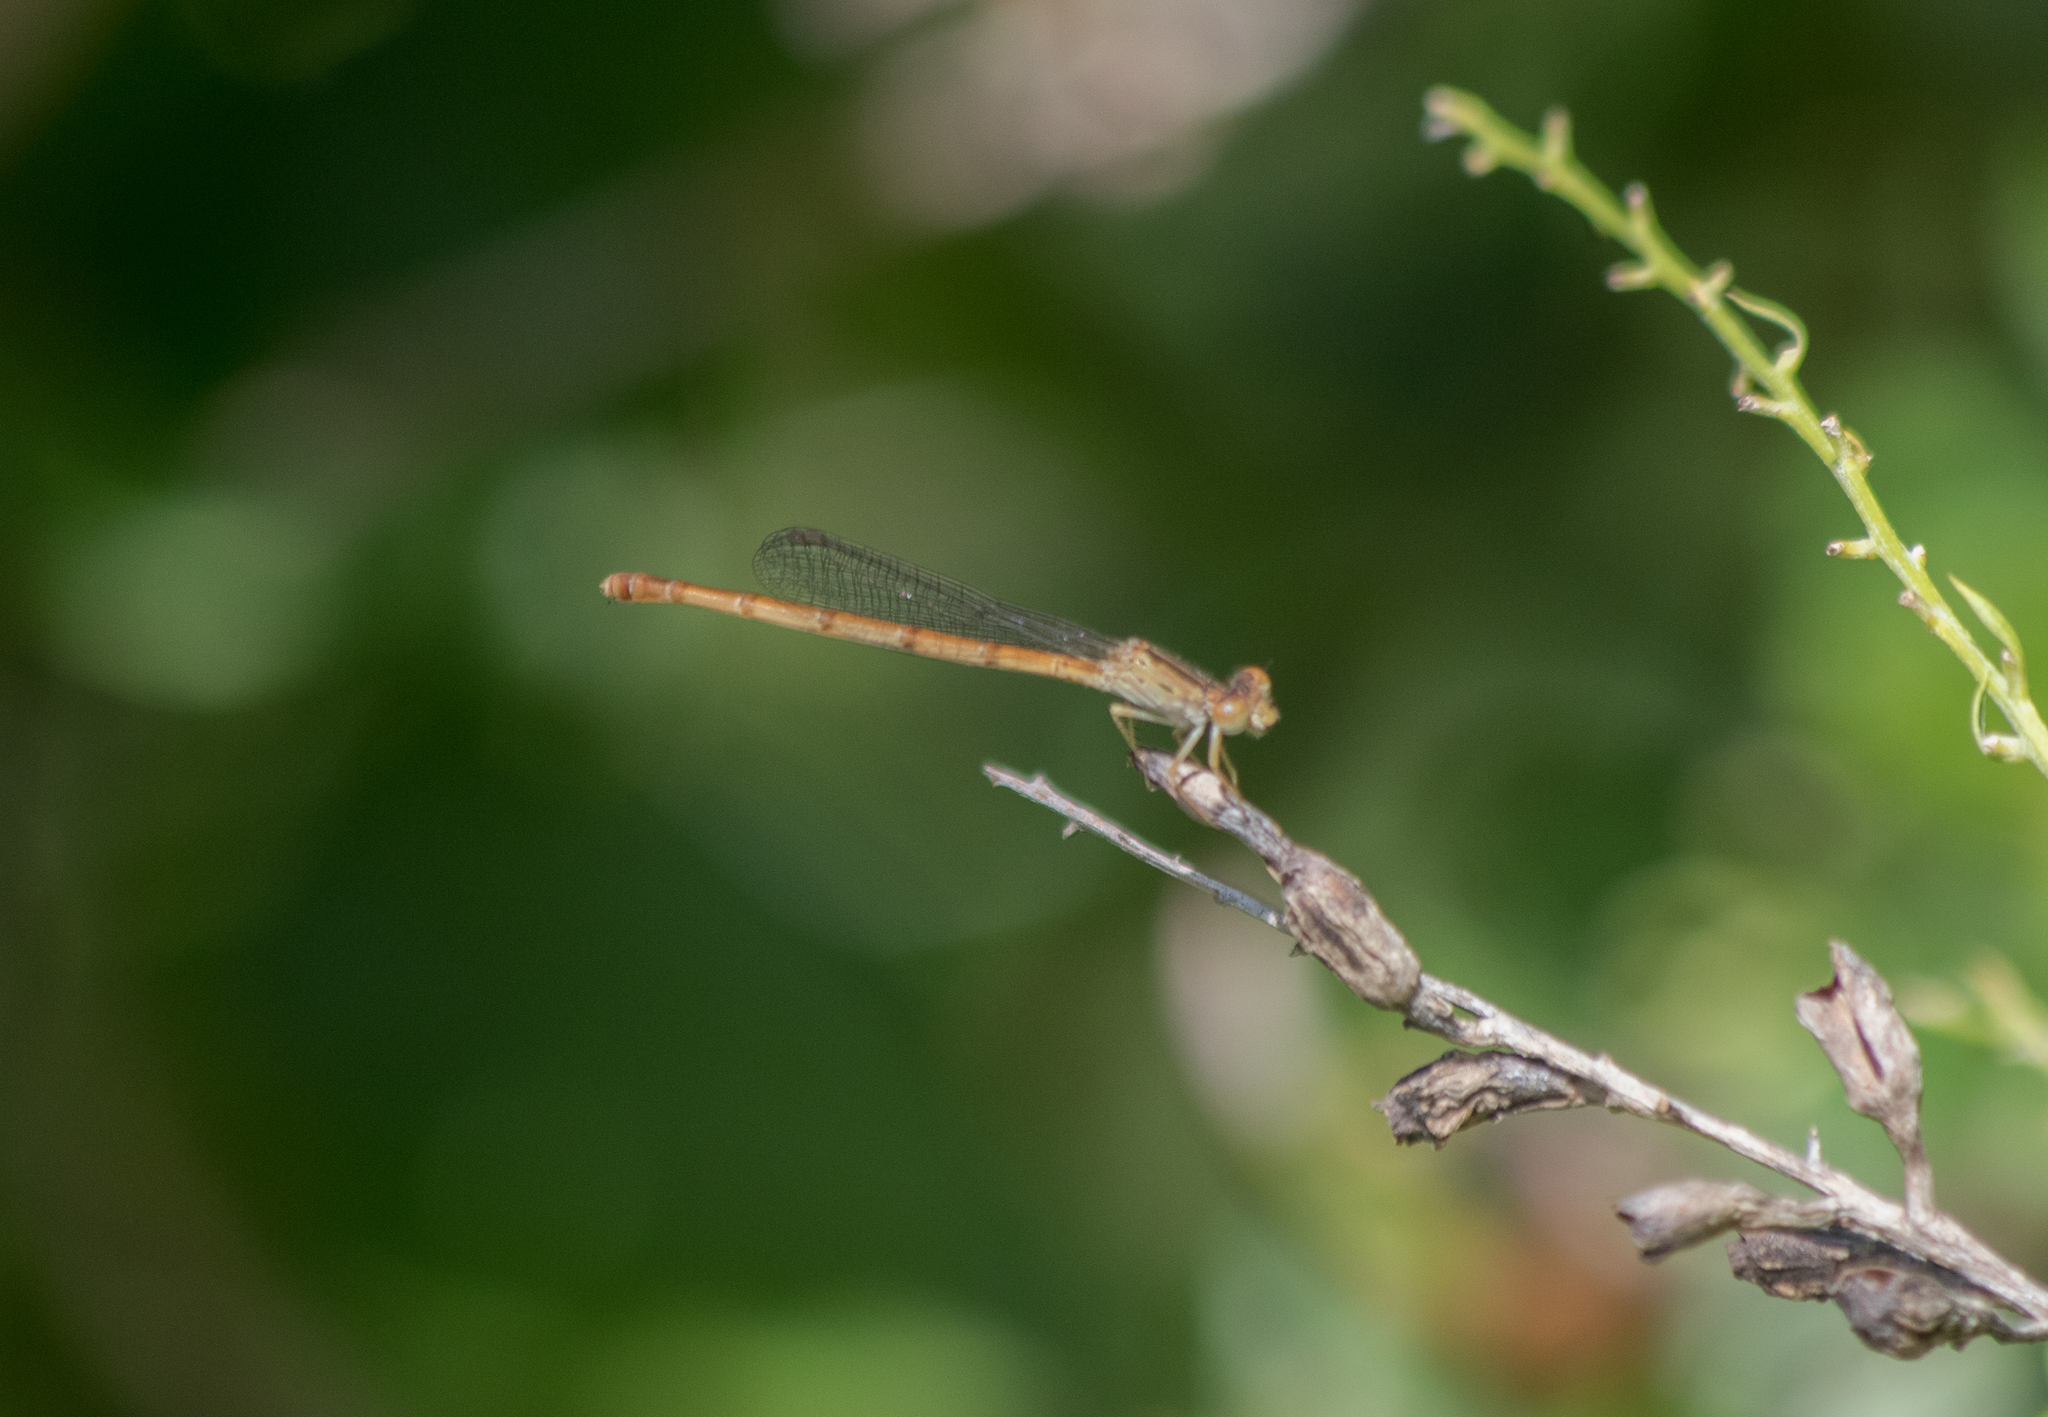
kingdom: Animalia
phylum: Arthropoda
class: Insecta
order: Odonata
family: Coenagrionidae
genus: Telebasis
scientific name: Telebasis salva
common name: Desert firetail
